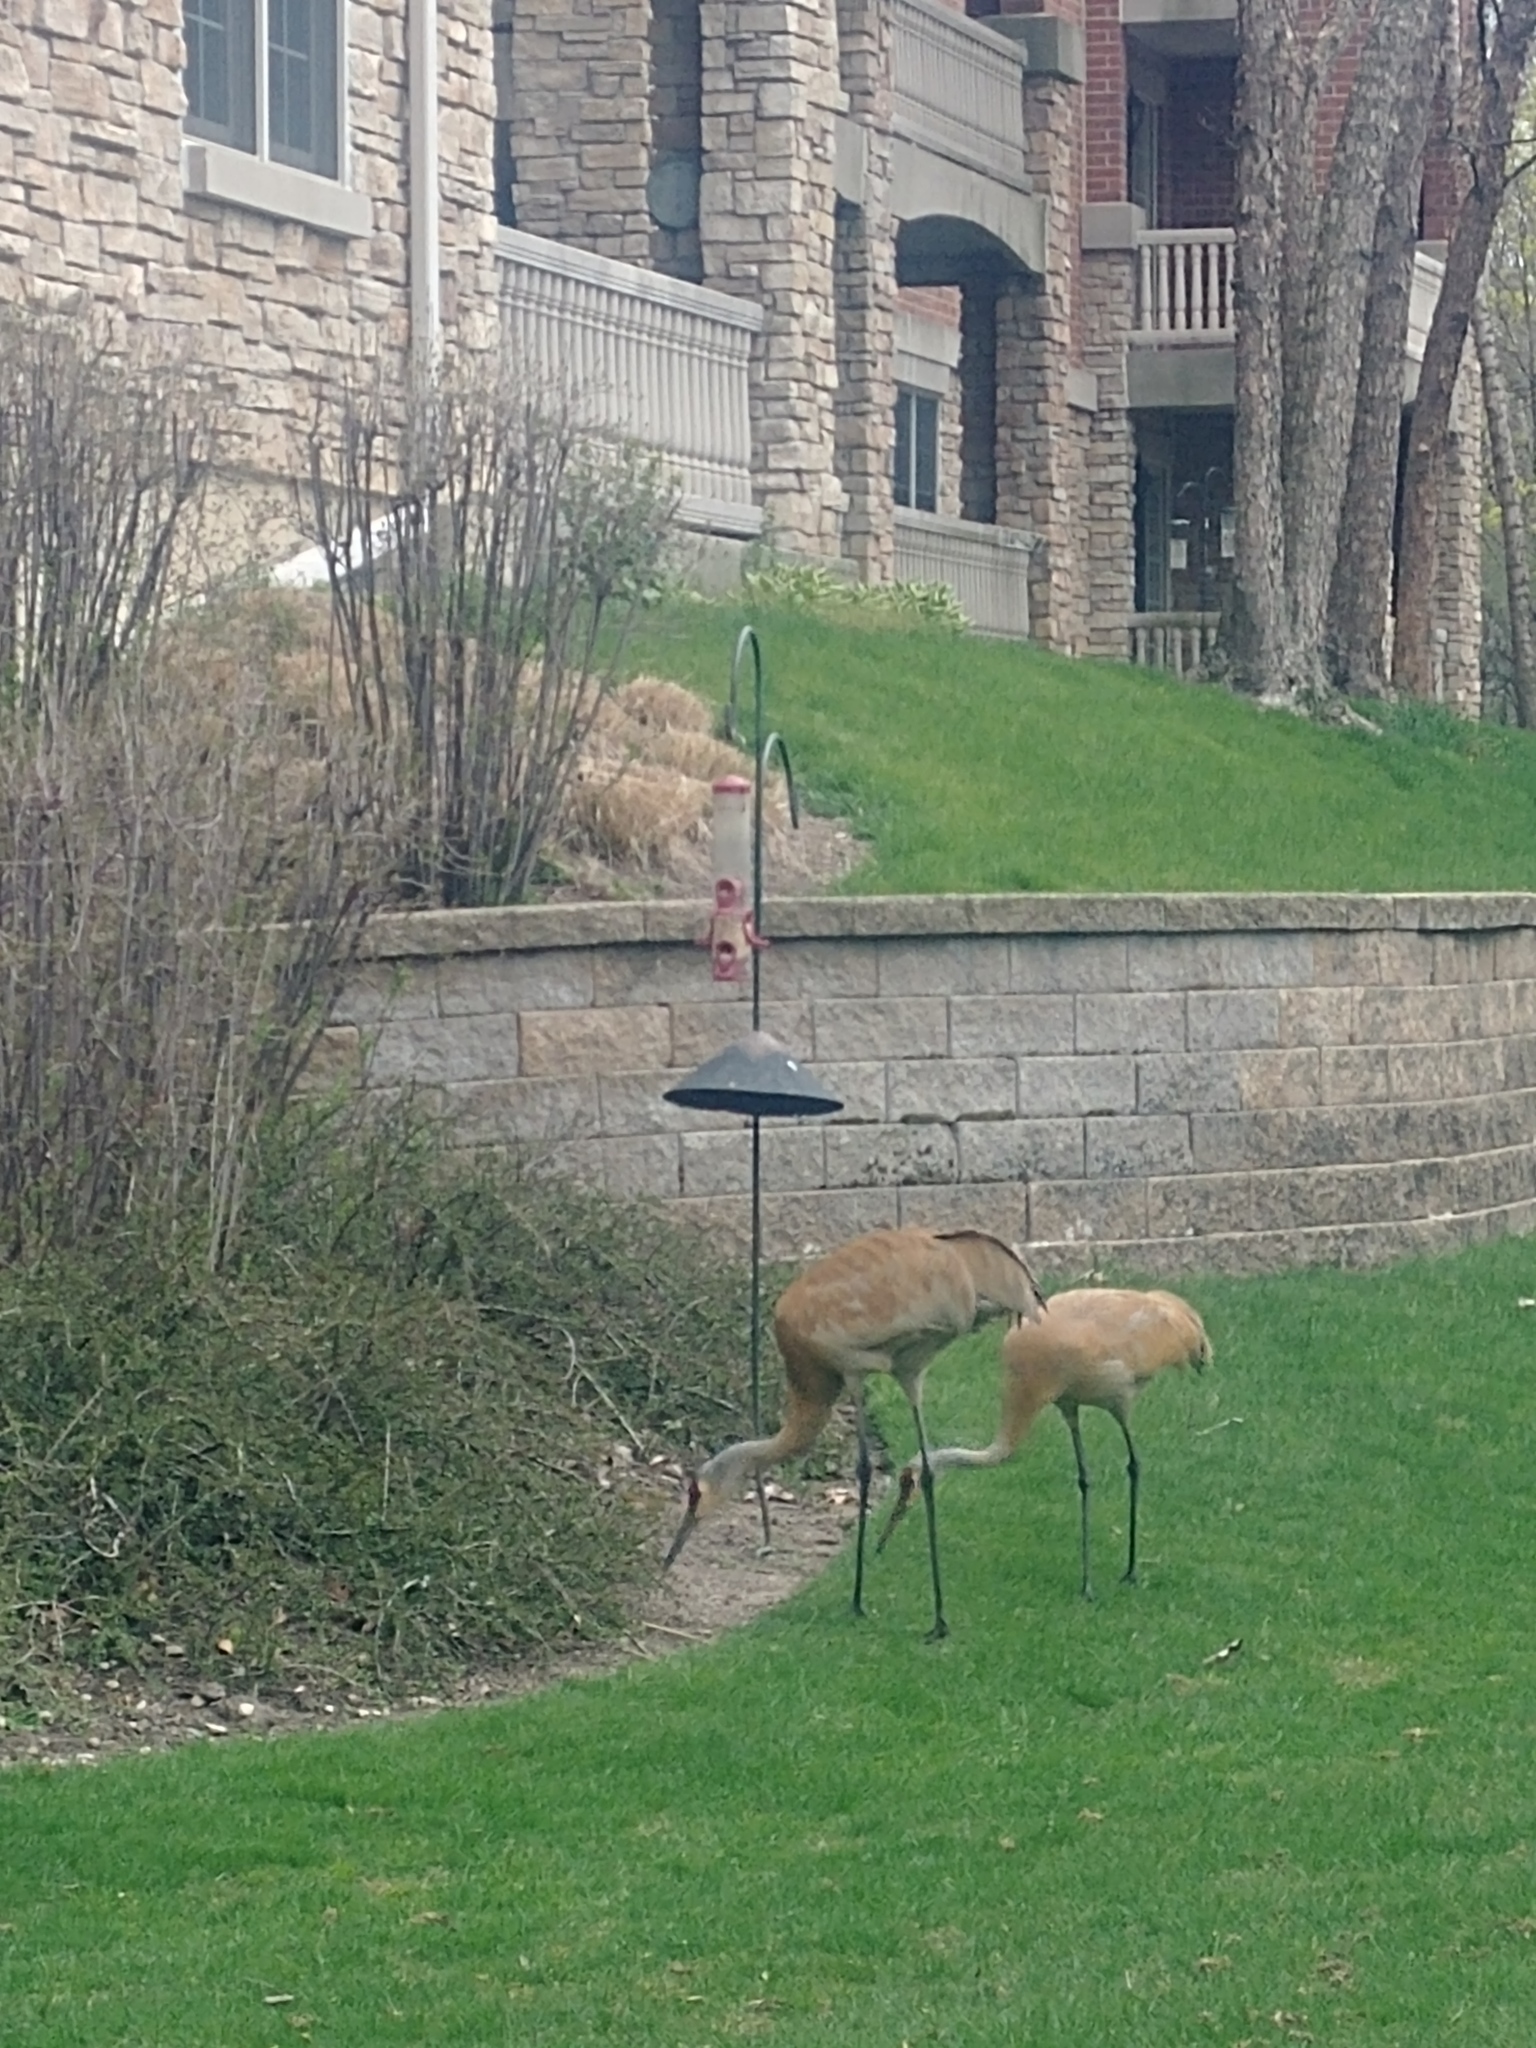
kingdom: Animalia
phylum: Chordata
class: Aves
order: Gruiformes
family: Gruidae
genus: Grus
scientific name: Grus canadensis
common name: Sandhill crane
